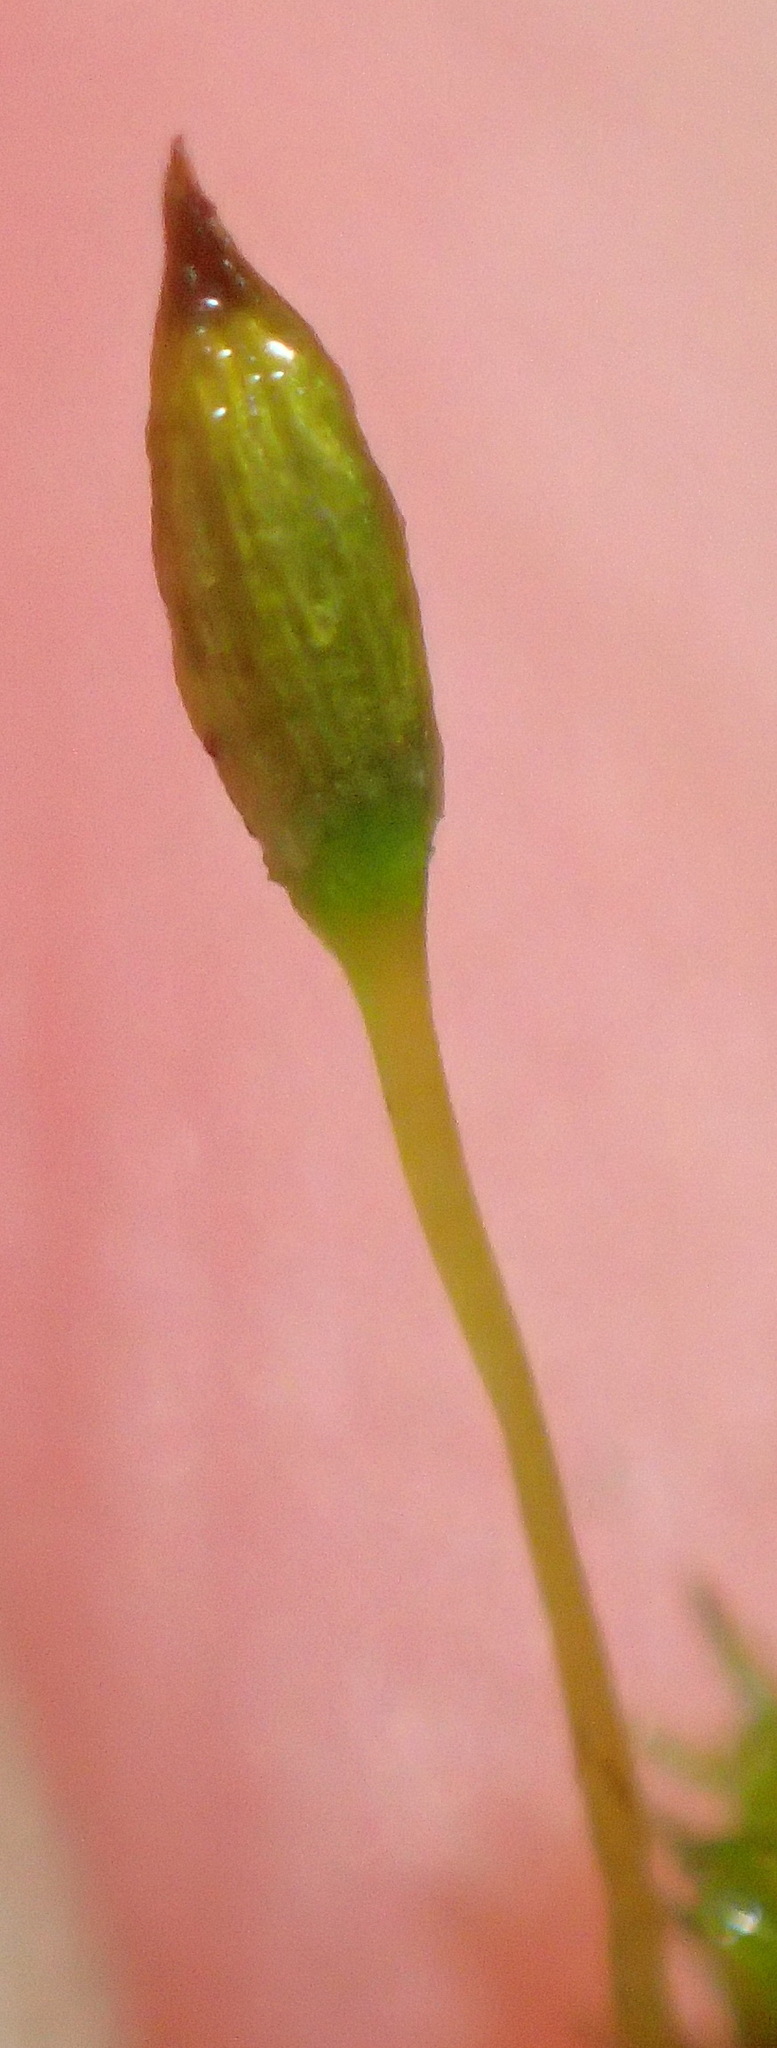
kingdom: Plantae
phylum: Bryophyta
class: Bryopsida
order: Orthotrichales
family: Orthotrichaceae
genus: Macrocoma
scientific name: Macrocoma pulchella
